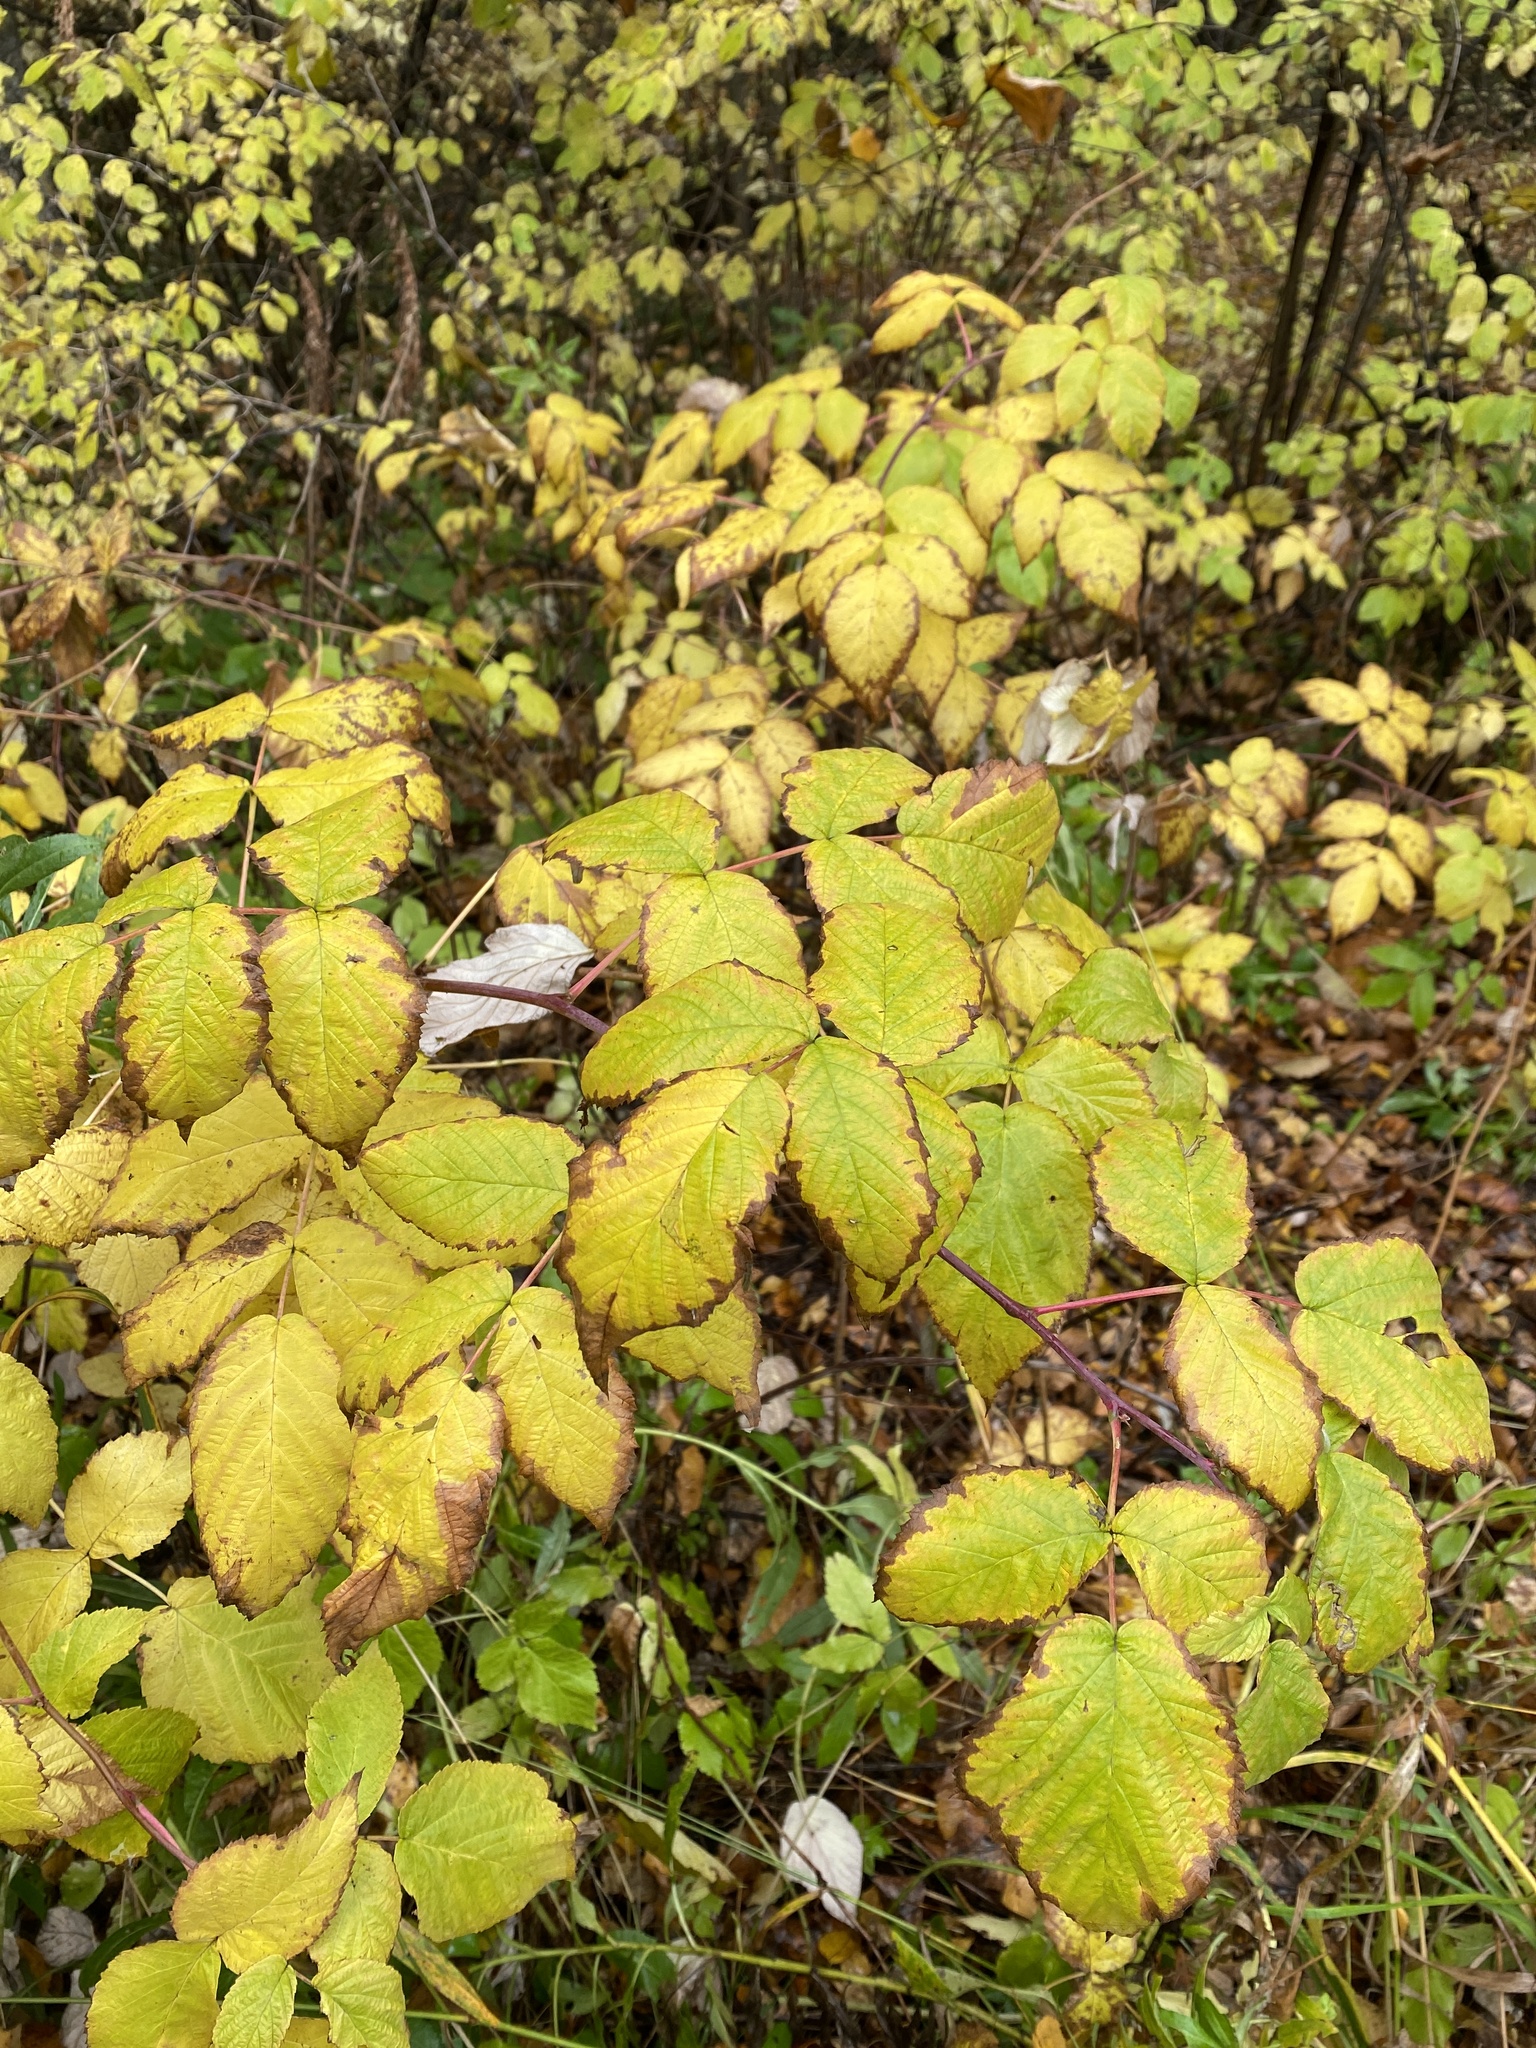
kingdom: Plantae
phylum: Tracheophyta
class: Magnoliopsida
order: Rosales
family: Rosaceae
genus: Rubus
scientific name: Rubus idaeus
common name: Raspberry
